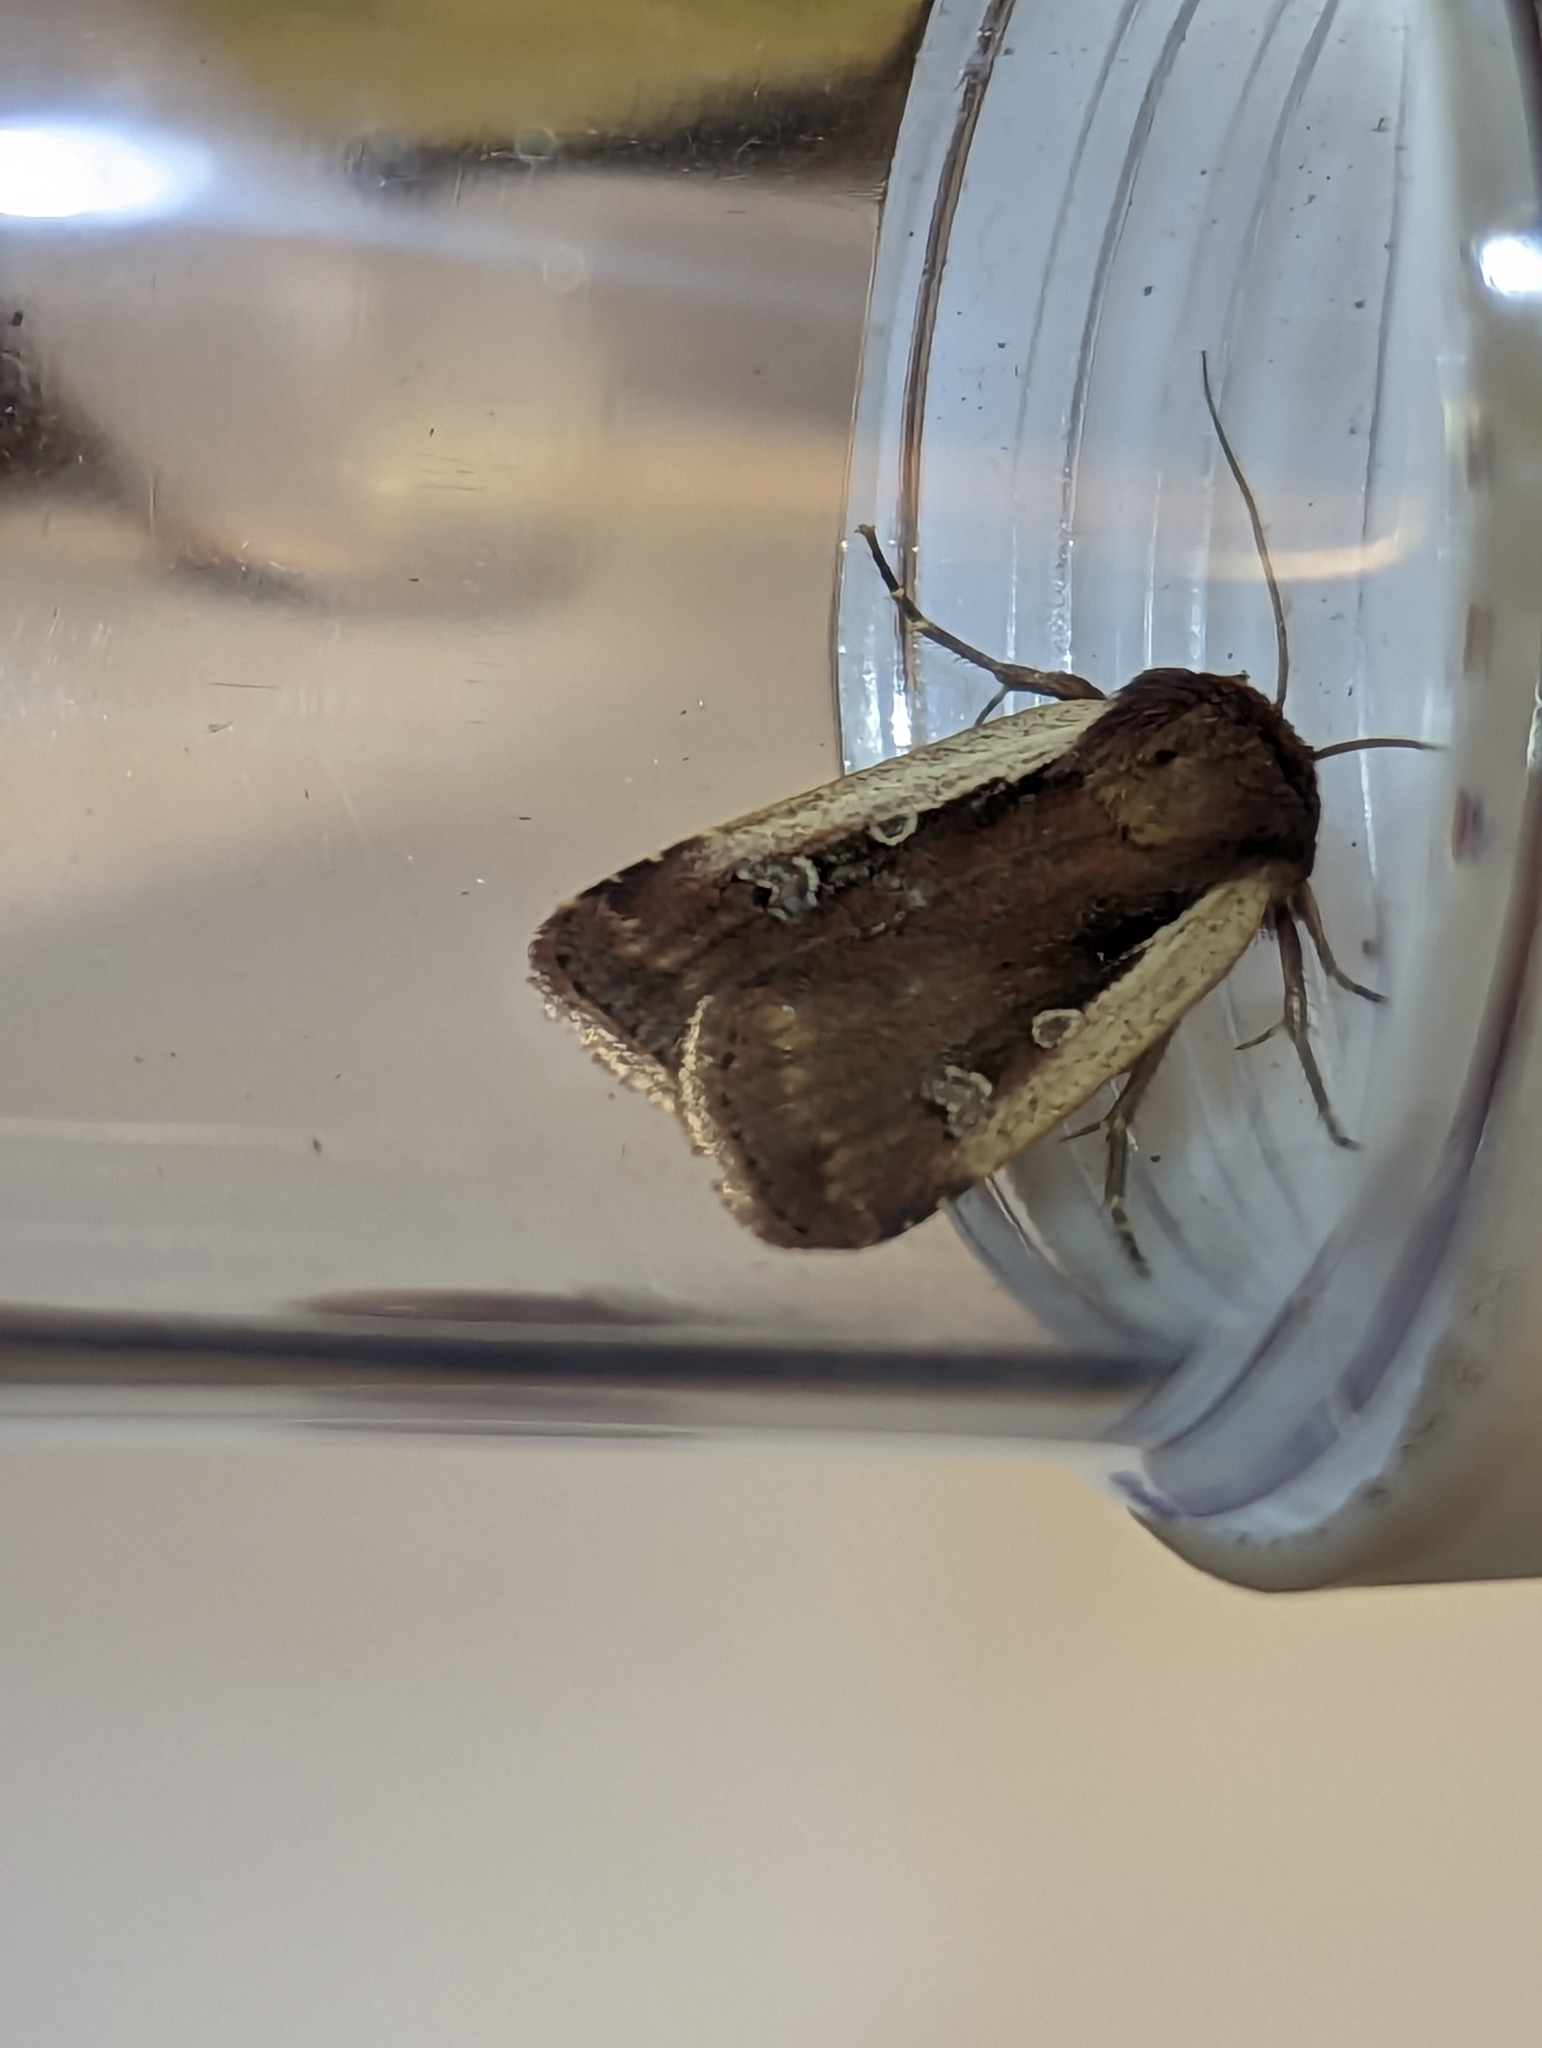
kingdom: Animalia
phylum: Arthropoda
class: Insecta
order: Lepidoptera
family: Noctuidae
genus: Ochropleura
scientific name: Ochropleura plecta
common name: Flame shoulder
